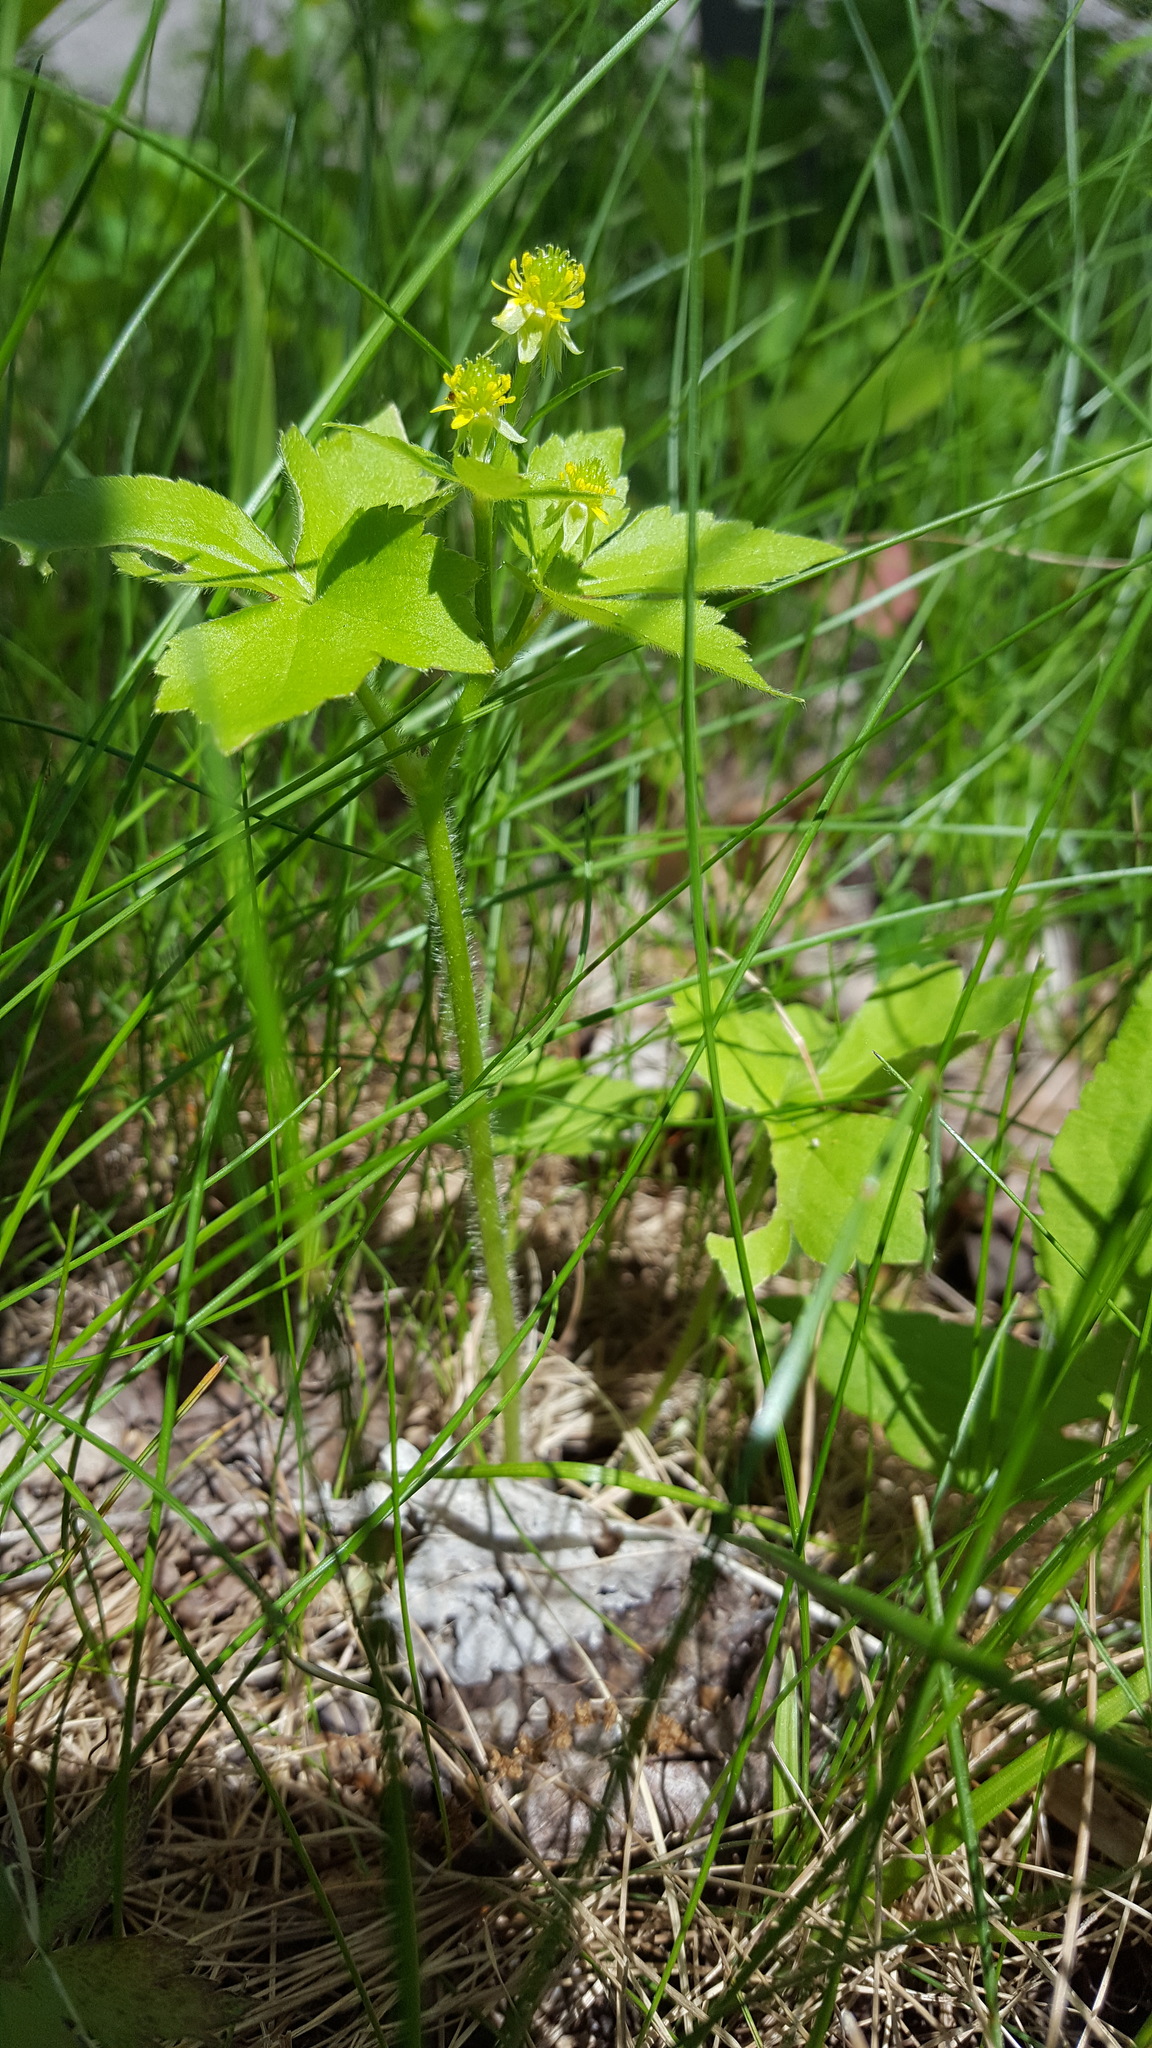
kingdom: Plantae
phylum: Tracheophyta
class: Magnoliopsida
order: Ranunculales
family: Ranunculaceae
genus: Ranunculus
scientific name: Ranunculus recurvatus
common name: Blisterwort
